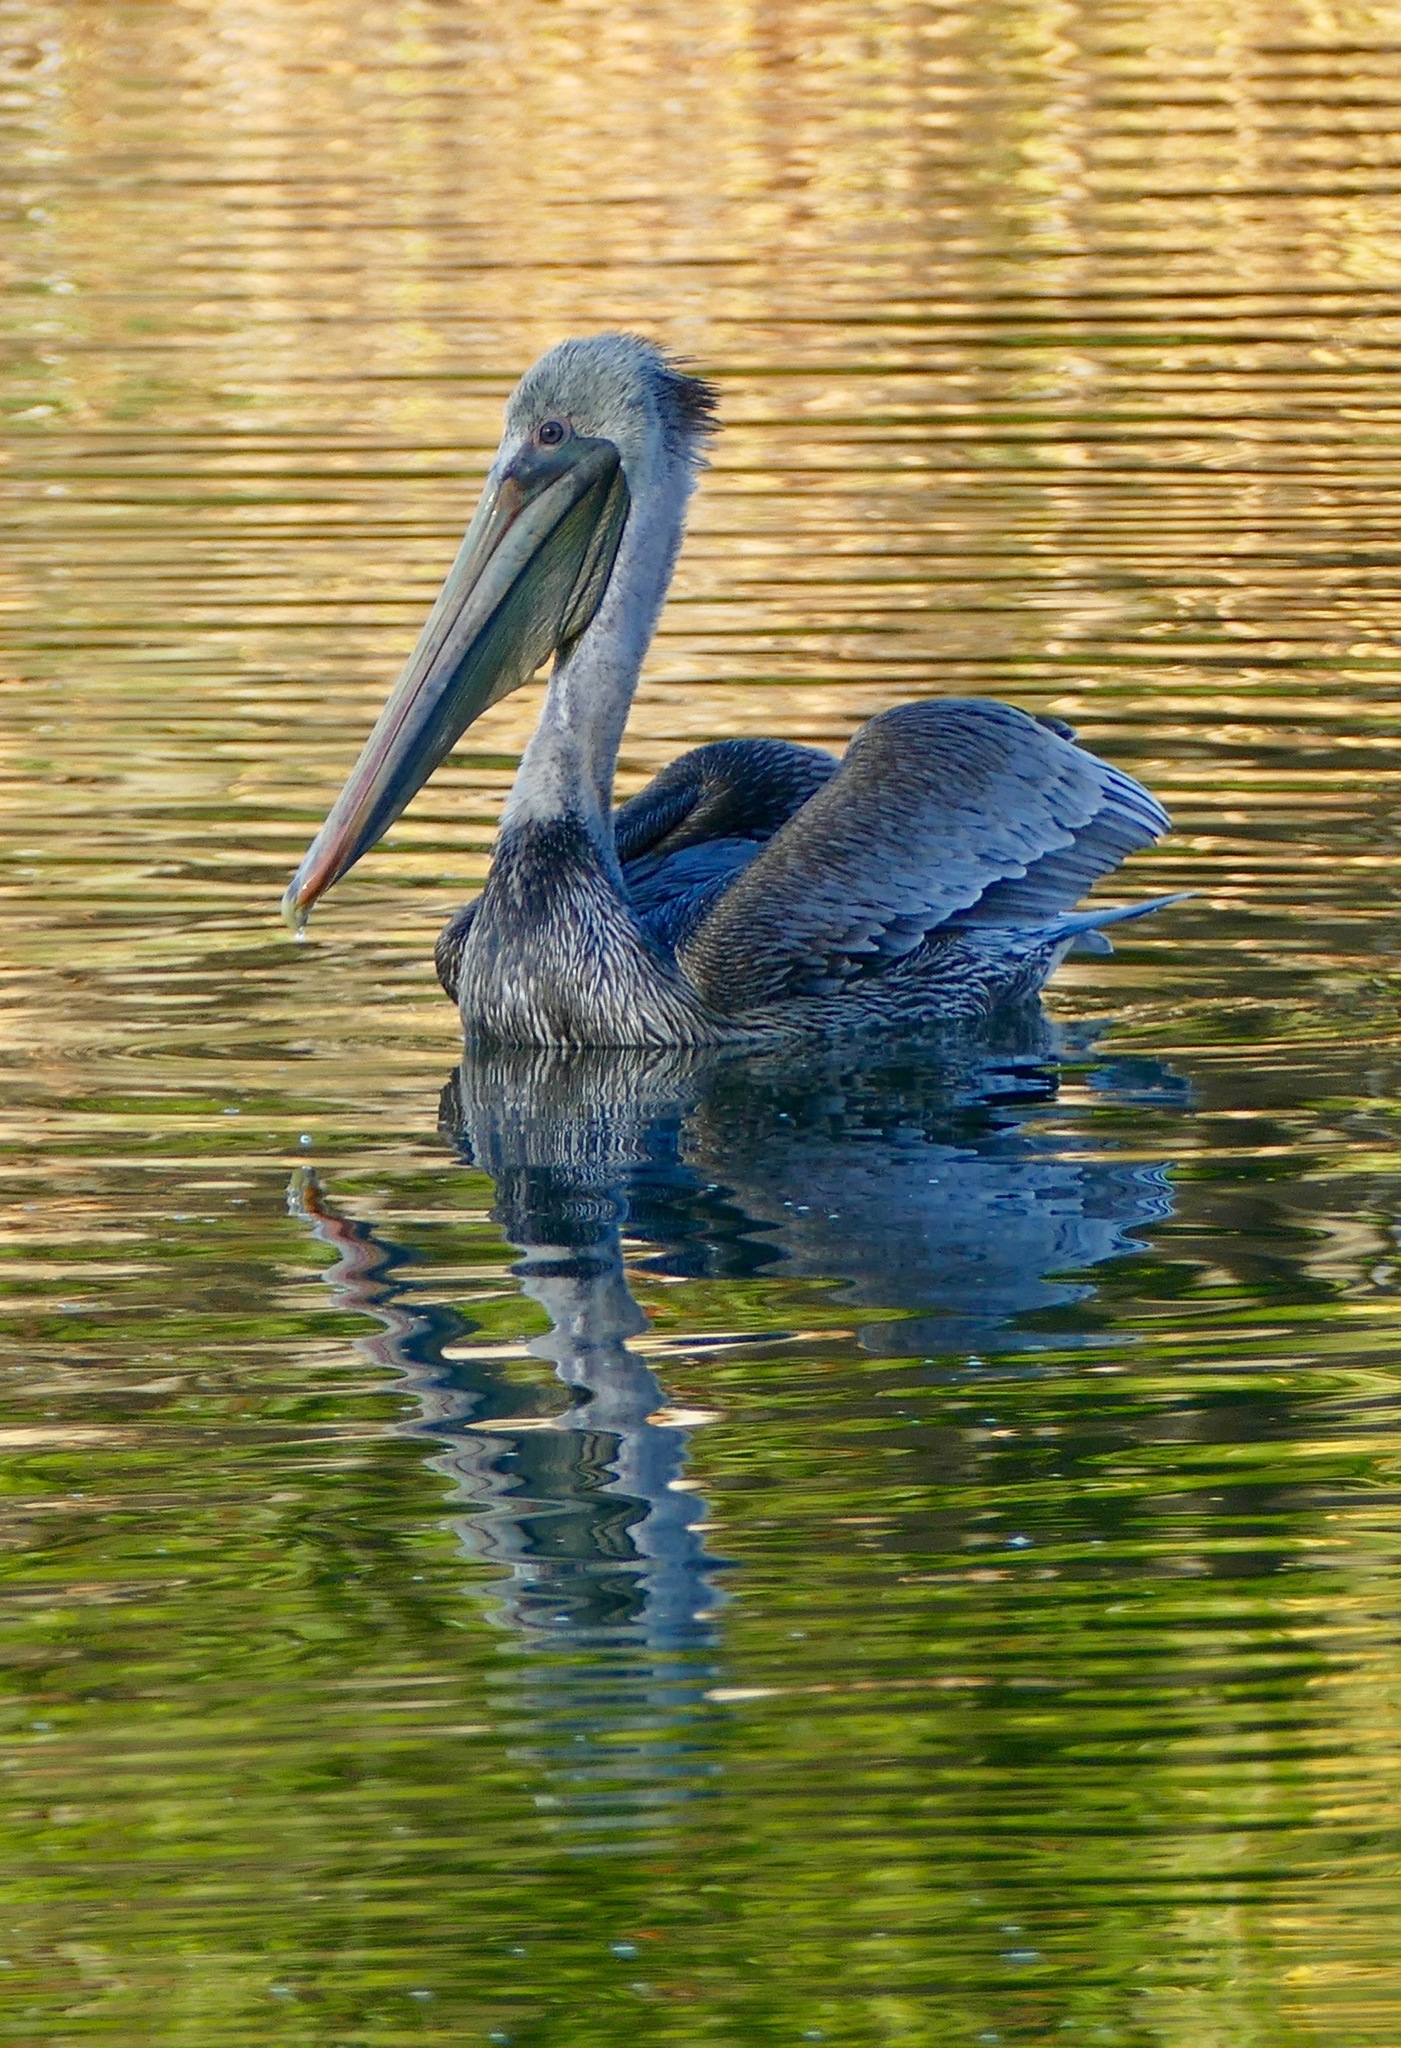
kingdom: Animalia
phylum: Chordata
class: Aves
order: Pelecaniformes
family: Pelecanidae
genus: Pelecanus
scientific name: Pelecanus occidentalis
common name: Brown pelican
